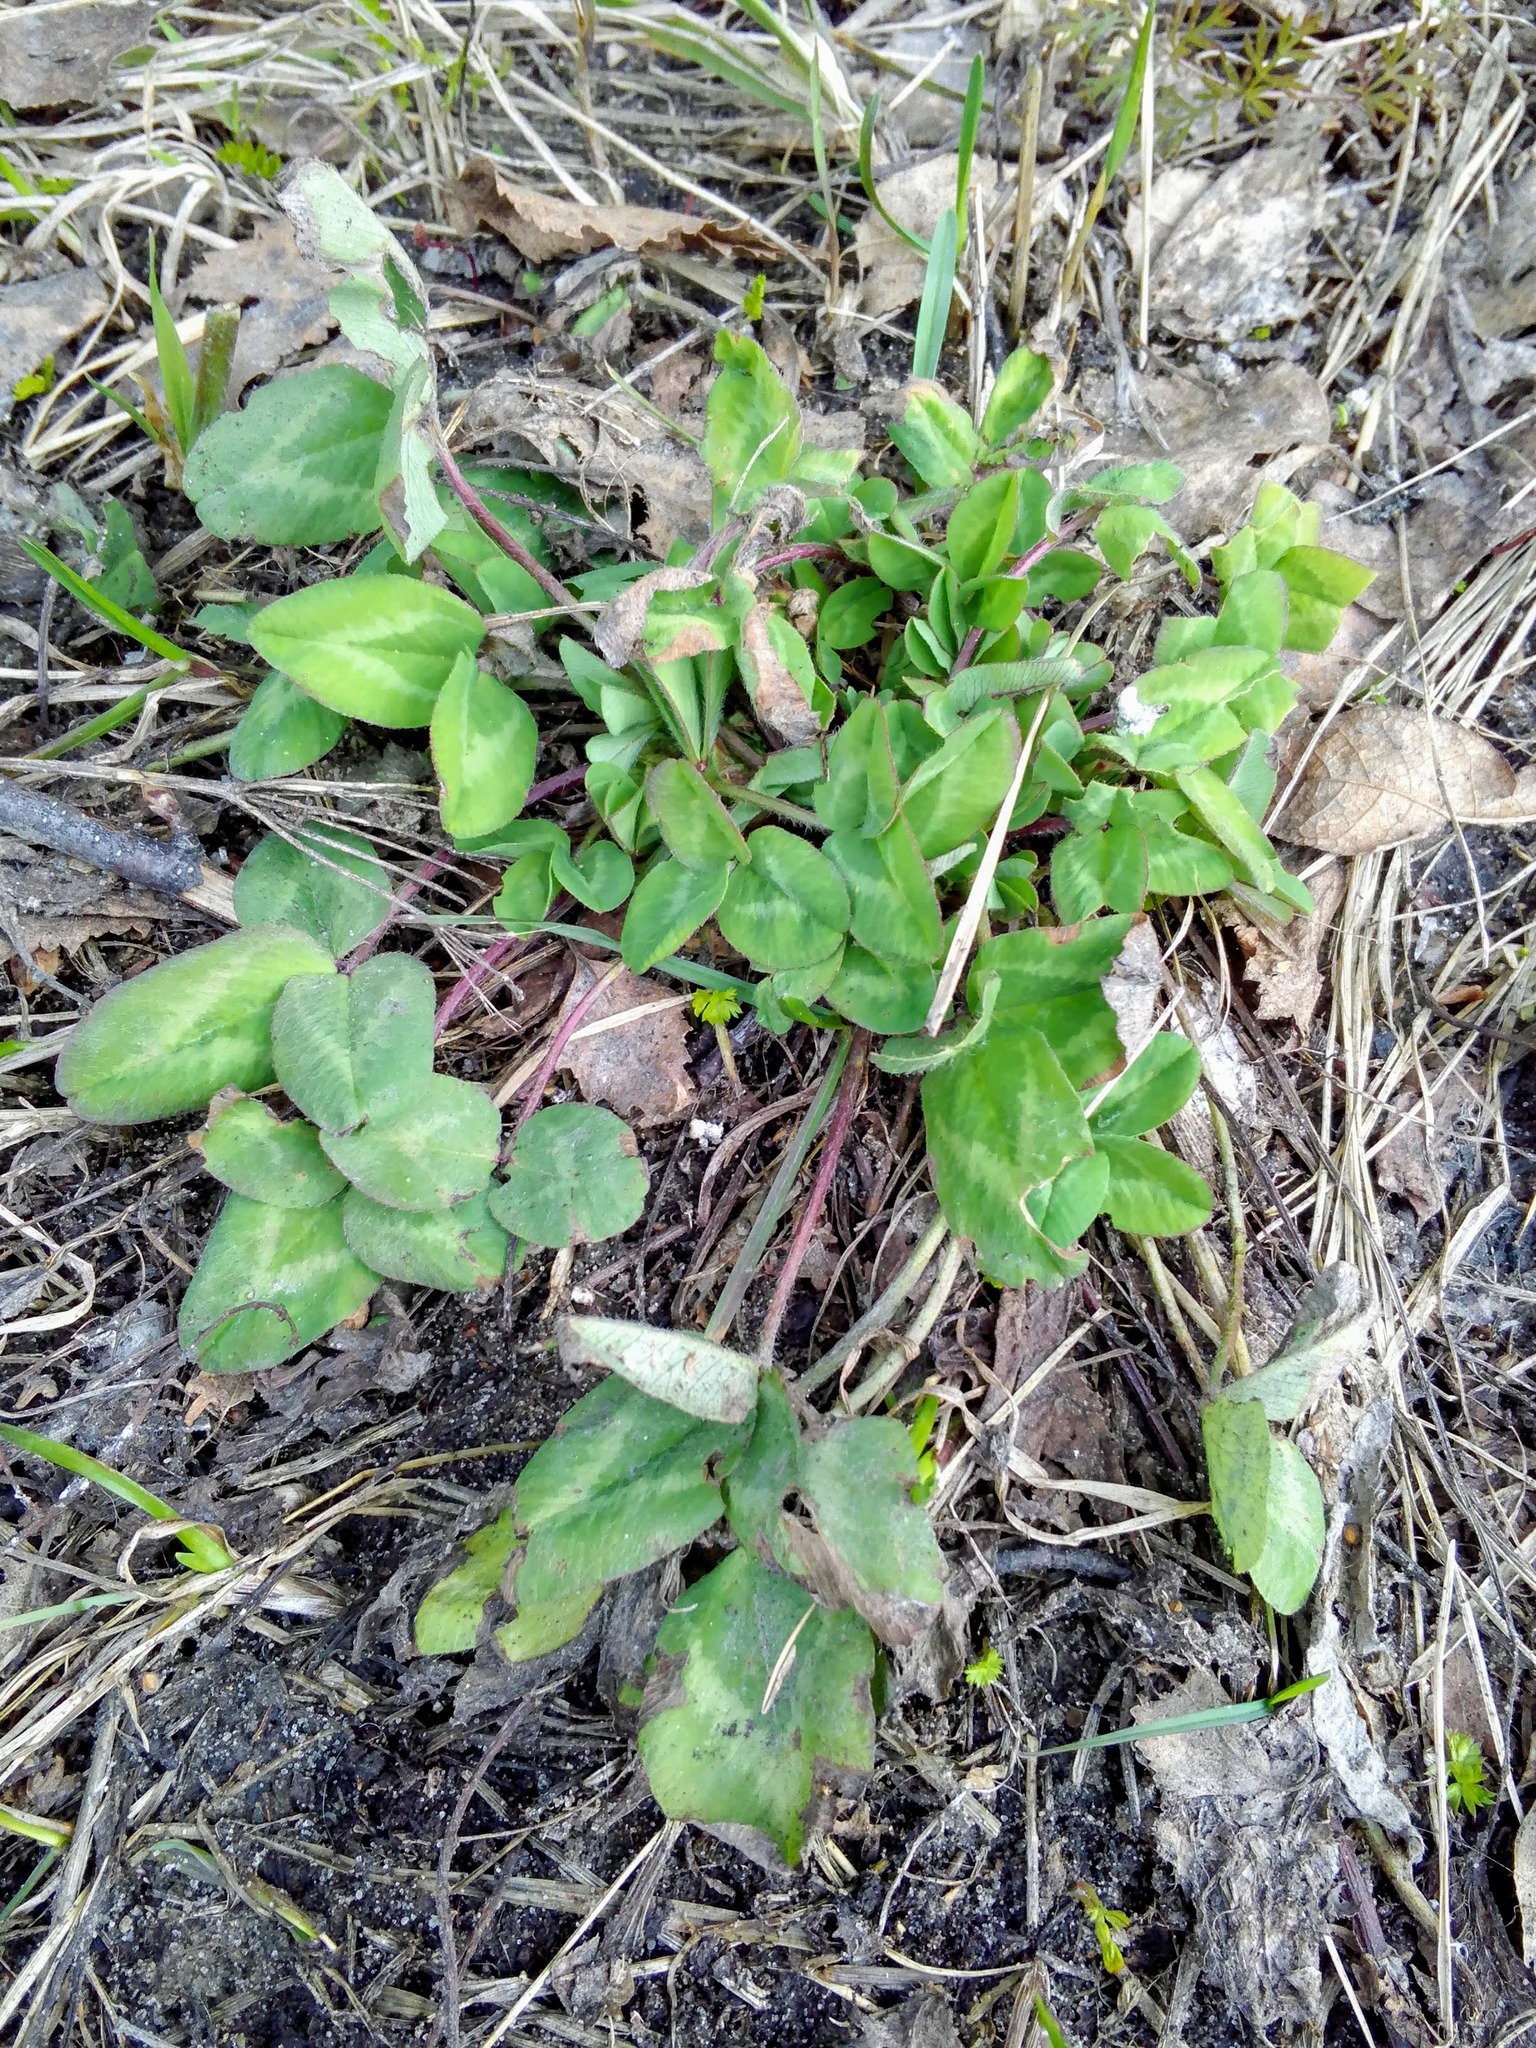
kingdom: Plantae
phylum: Tracheophyta
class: Magnoliopsida
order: Fabales
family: Fabaceae
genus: Trifolium
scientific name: Trifolium pratense
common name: Red clover
